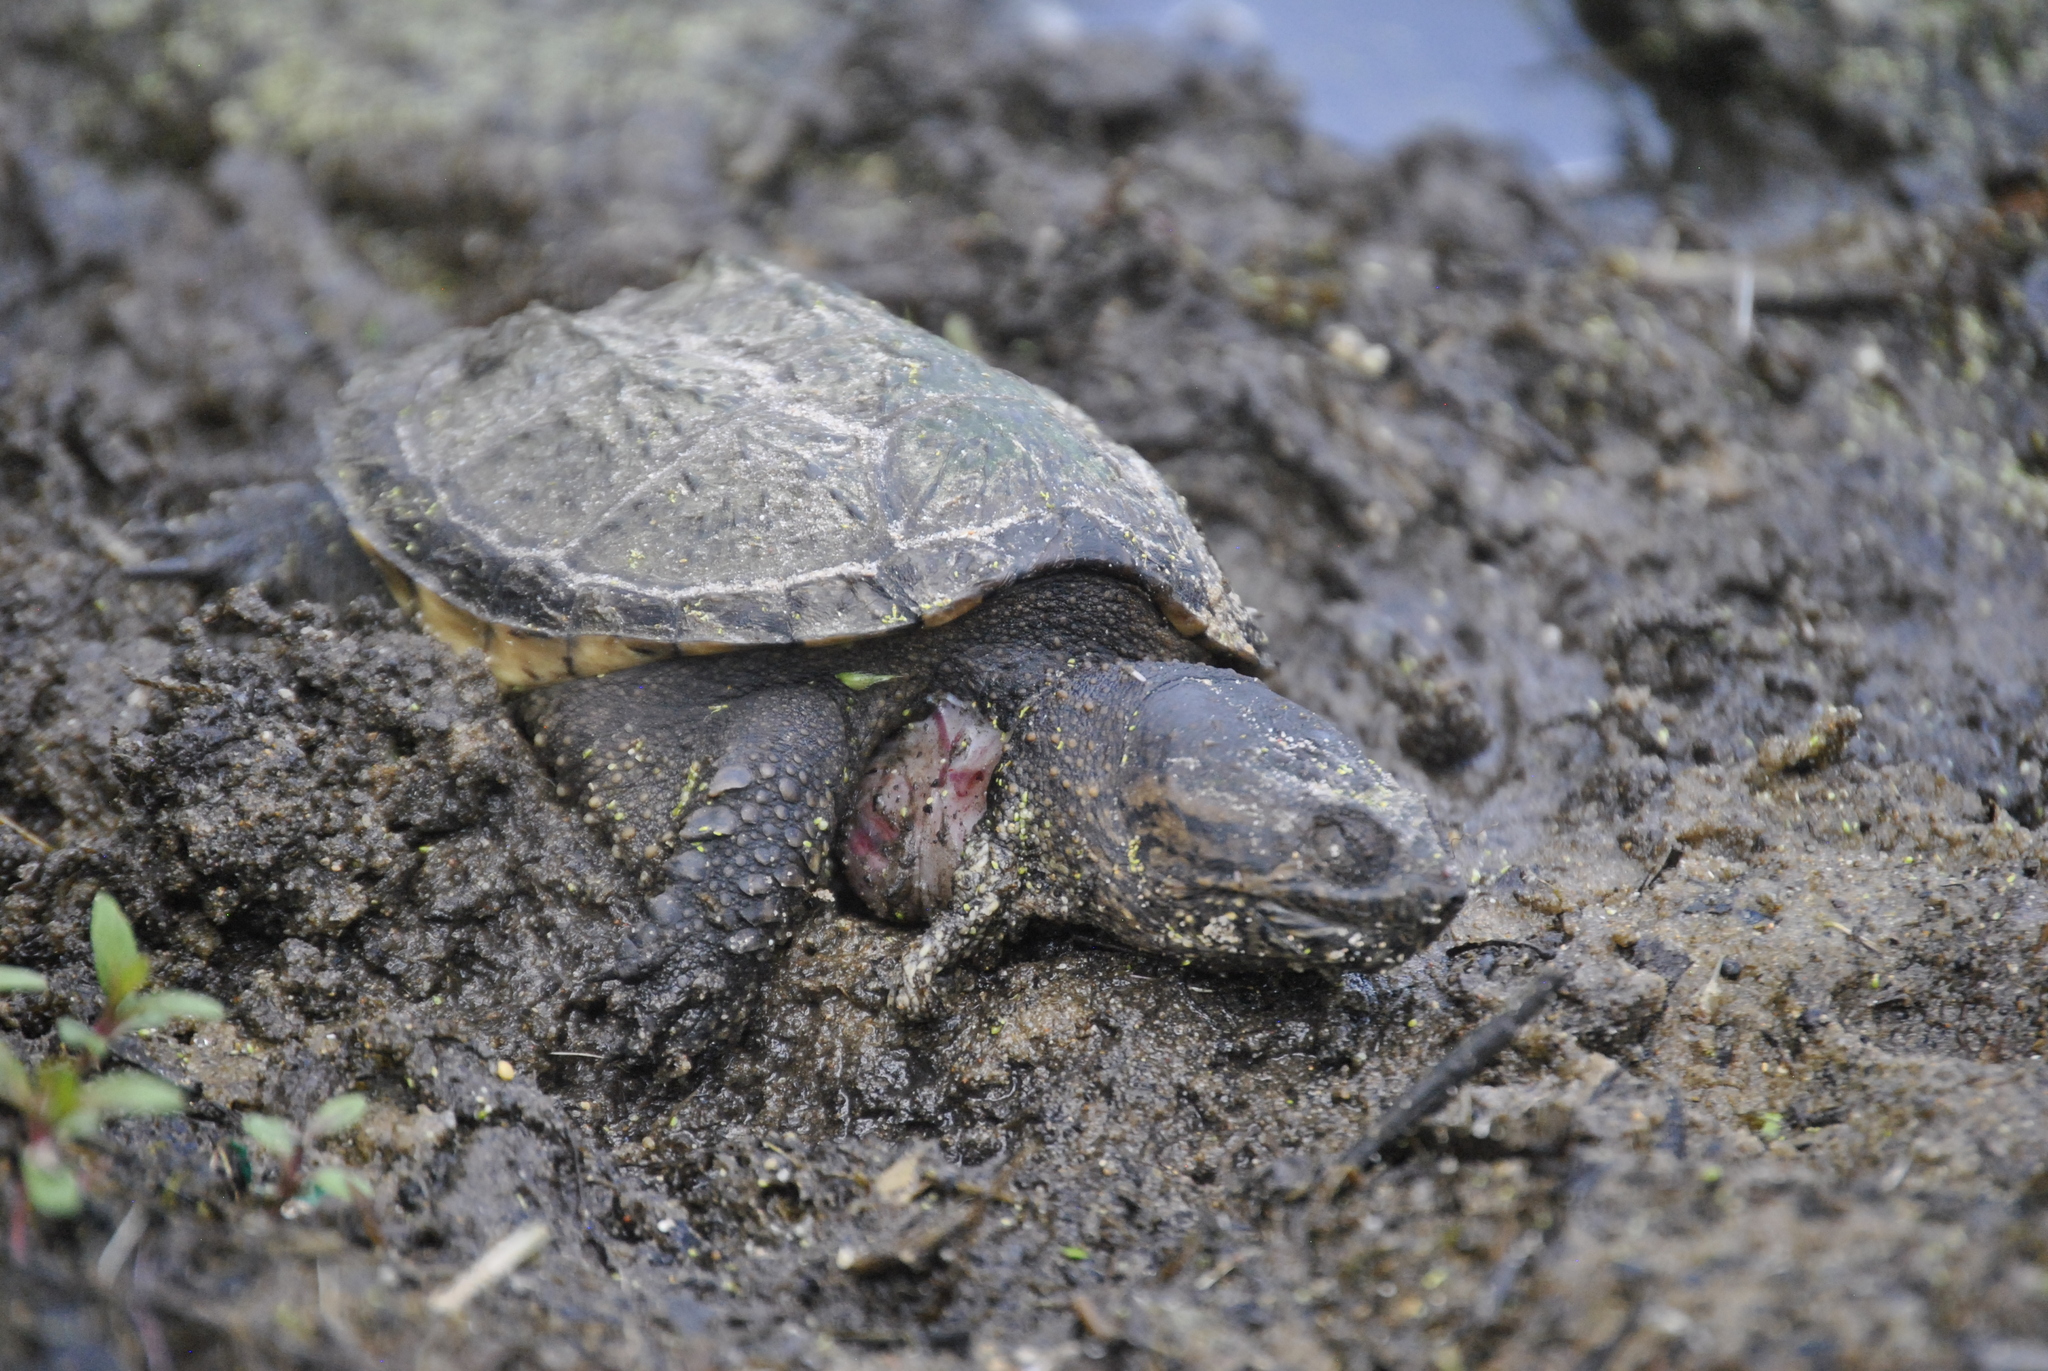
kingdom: Animalia
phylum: Chordata
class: Testudines
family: Chelydridae
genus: Chelydra
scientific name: Chelydra serpentina
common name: Common snapping turtle
